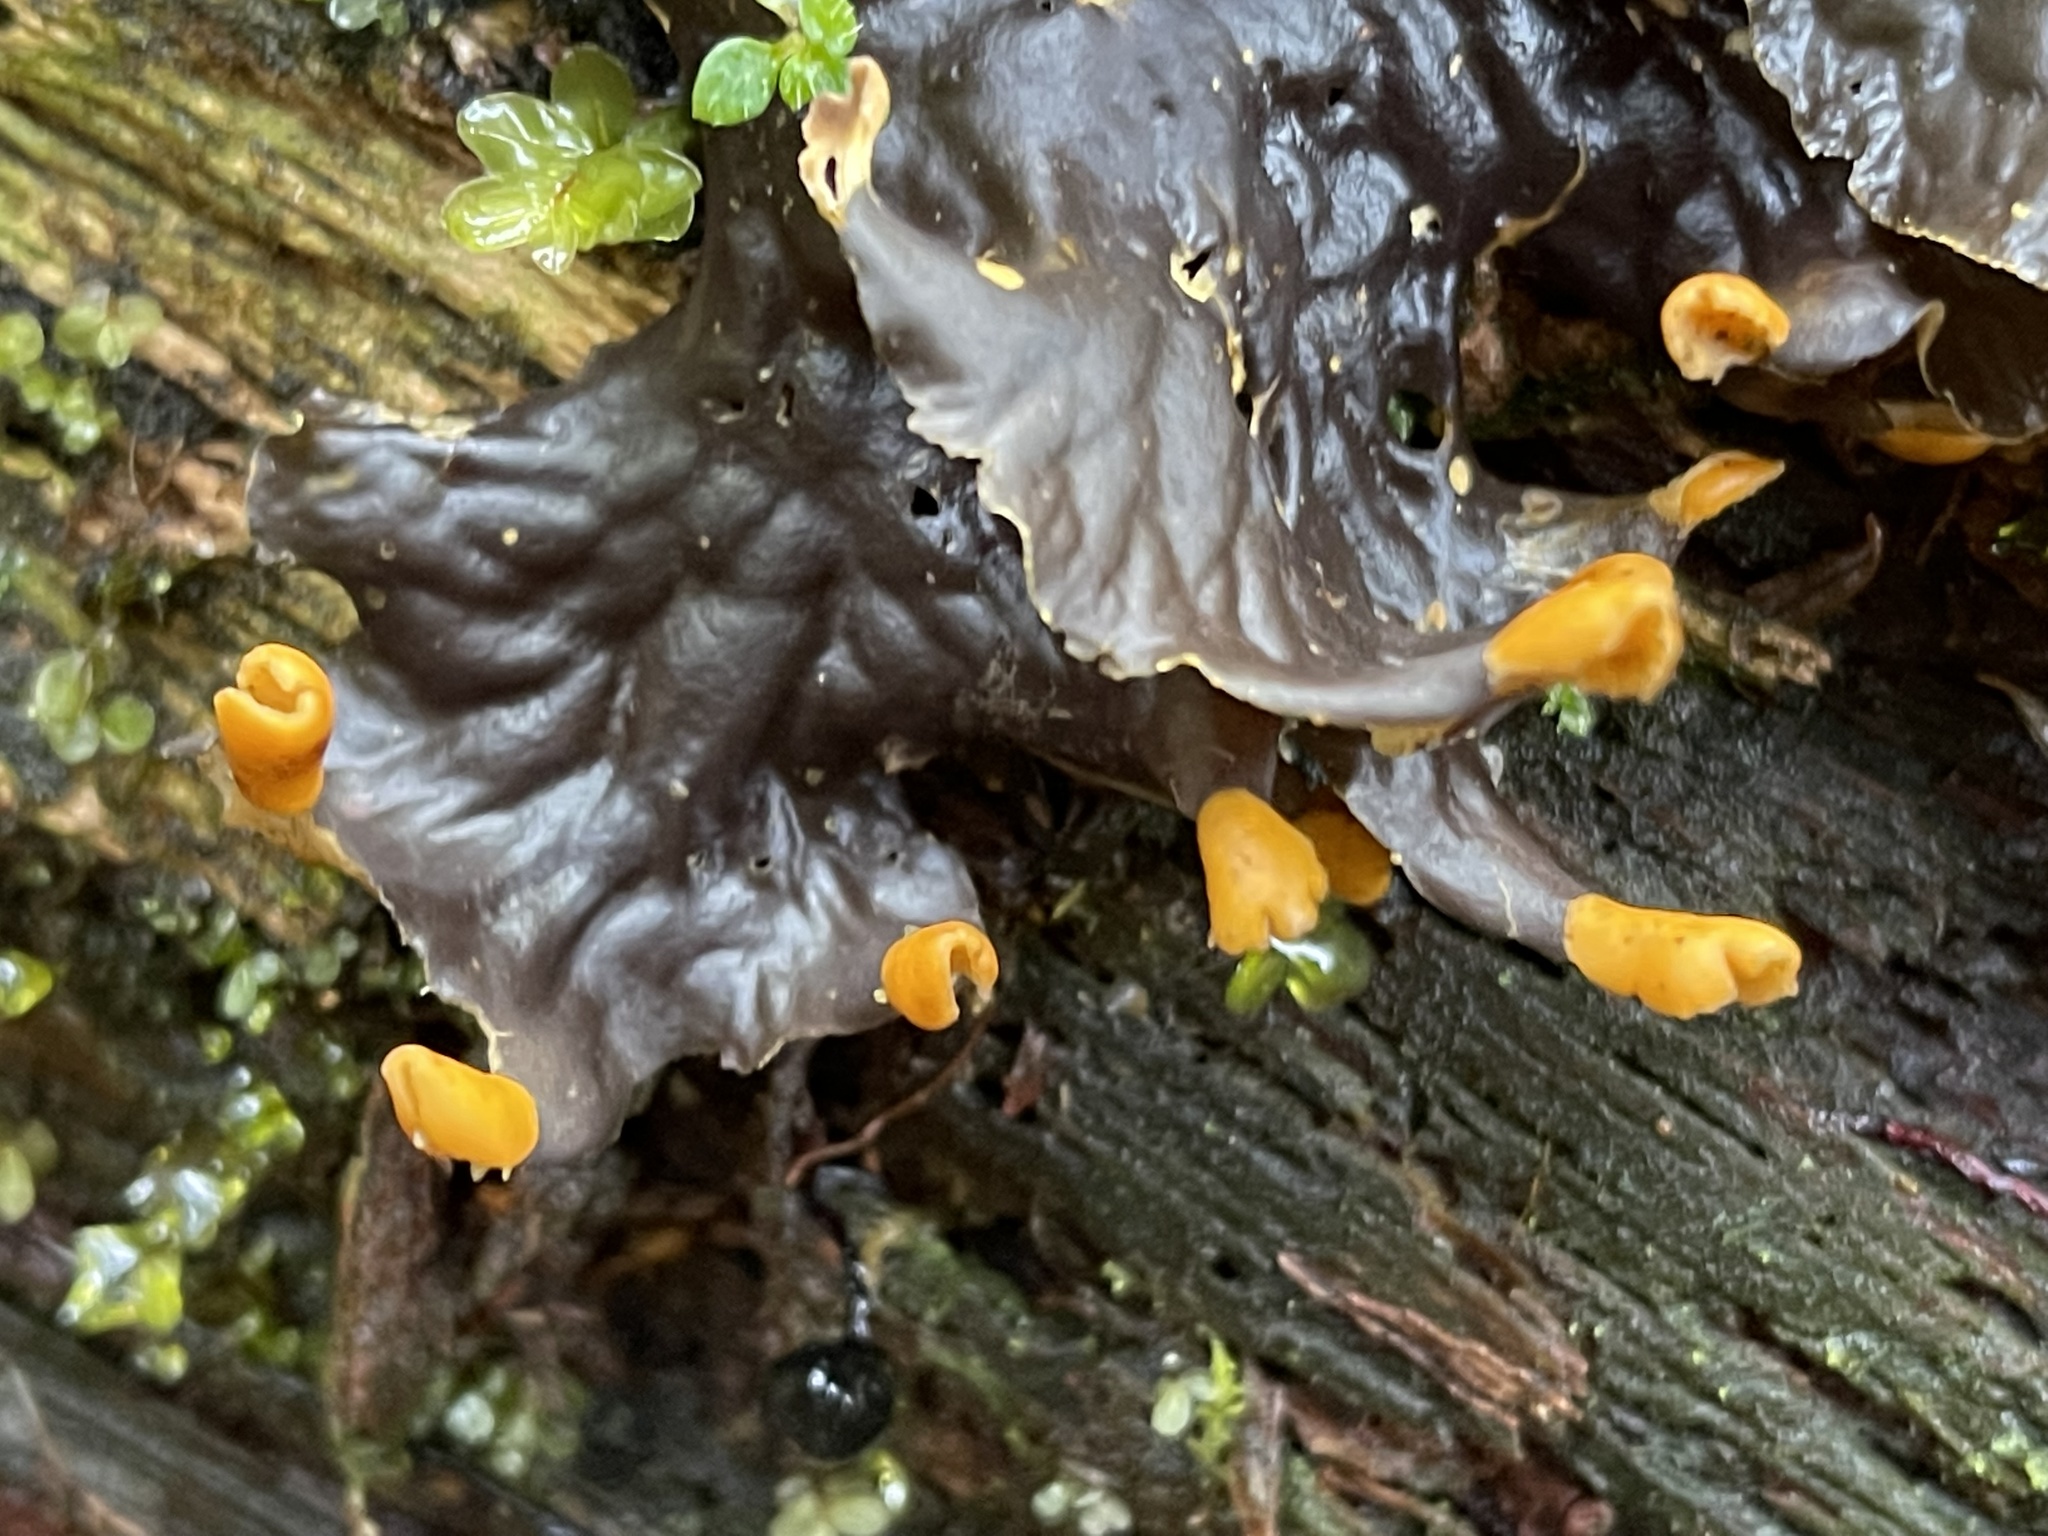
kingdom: Fungi
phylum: Ascomycota
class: Lecanoromycetes
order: Peltigerales
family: Peltigeraceae
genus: Peltigera
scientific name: Peltigera membranacea
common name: Membranous pelt lichen
